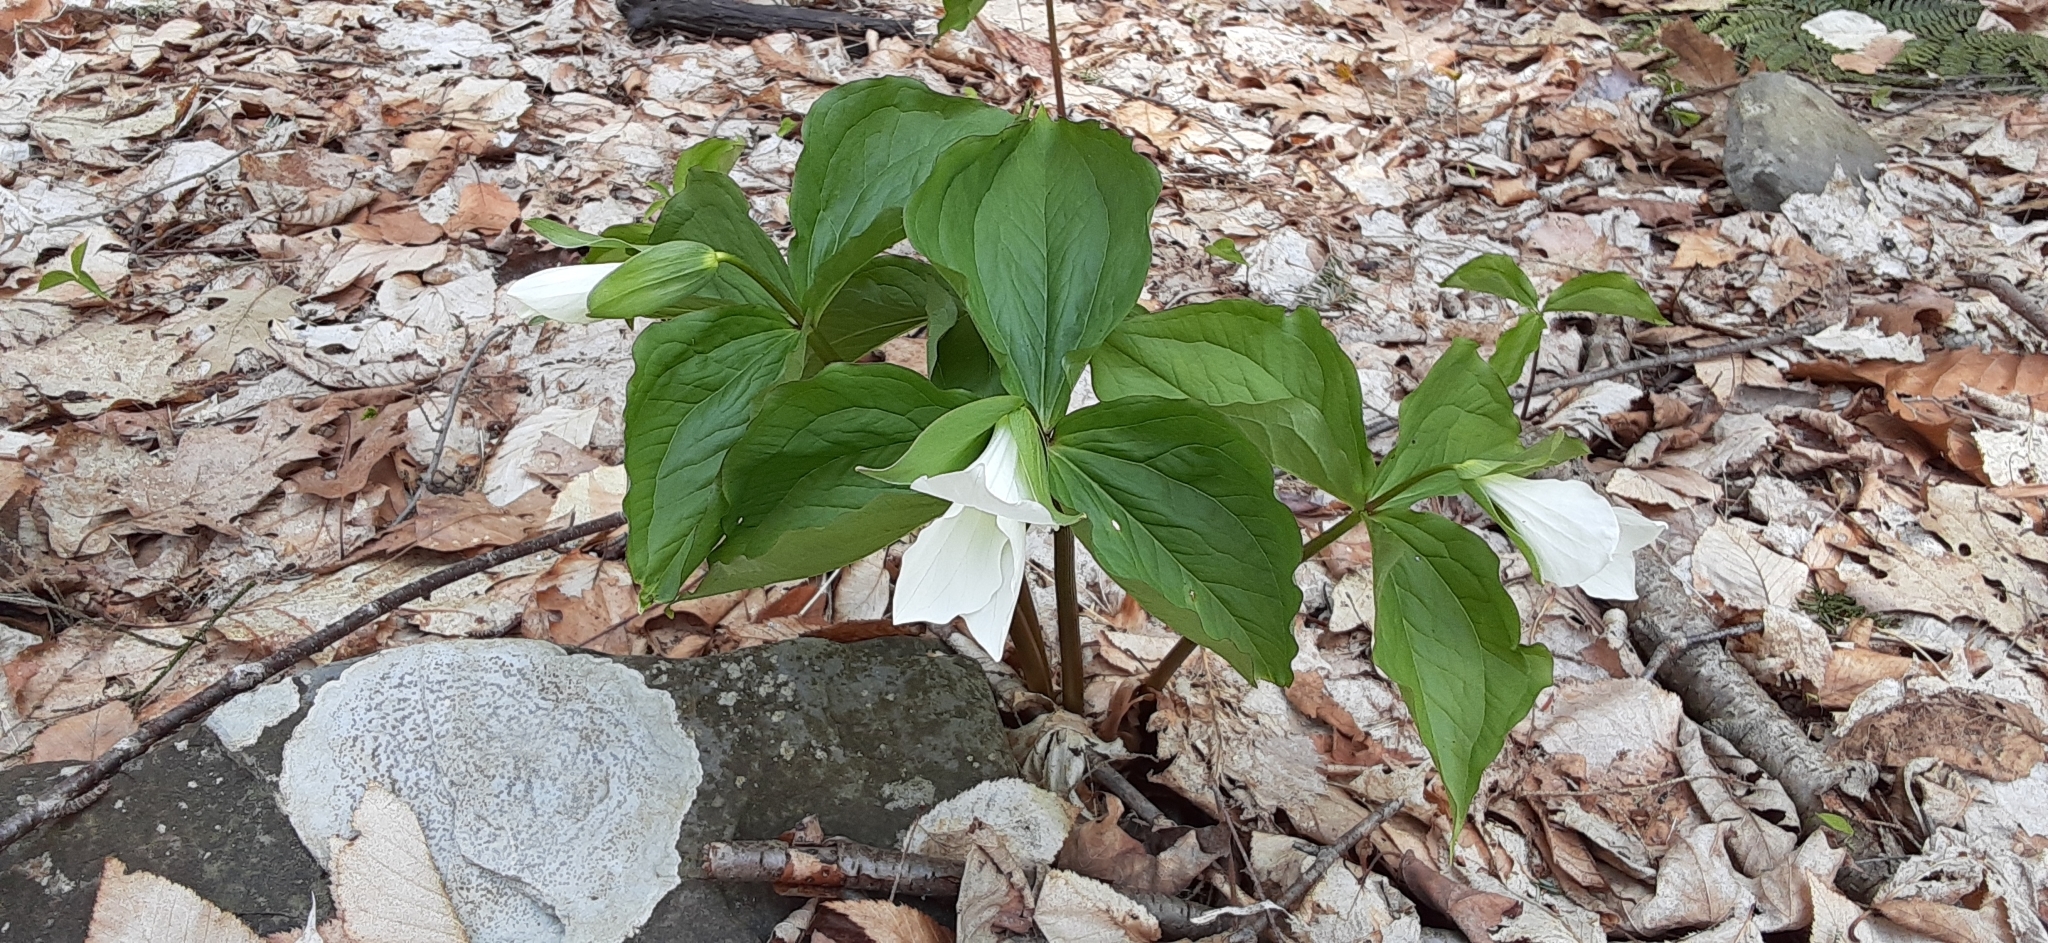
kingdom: Plantae
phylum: Tracheophyta
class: Liliopsida
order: Liliales
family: Melanthiaceae
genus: Trillium
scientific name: Trillium grandiflorum
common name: Great white trillium
